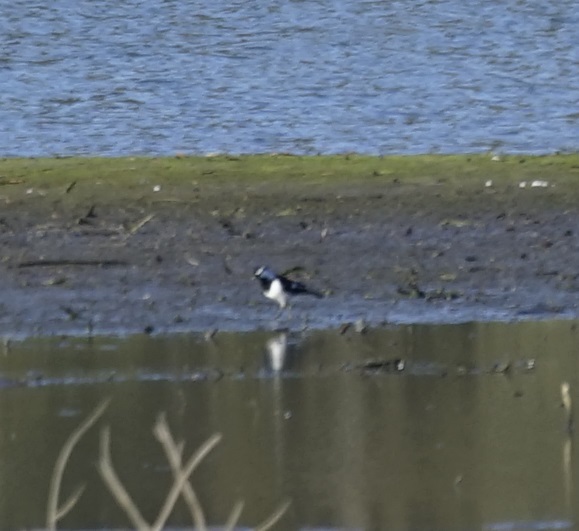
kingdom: Animalia
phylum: Chordata
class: Aves
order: Passeriformes
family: Monarchidae
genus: Grallina
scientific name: Grallina cyanoleuca
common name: Magpie-lark
